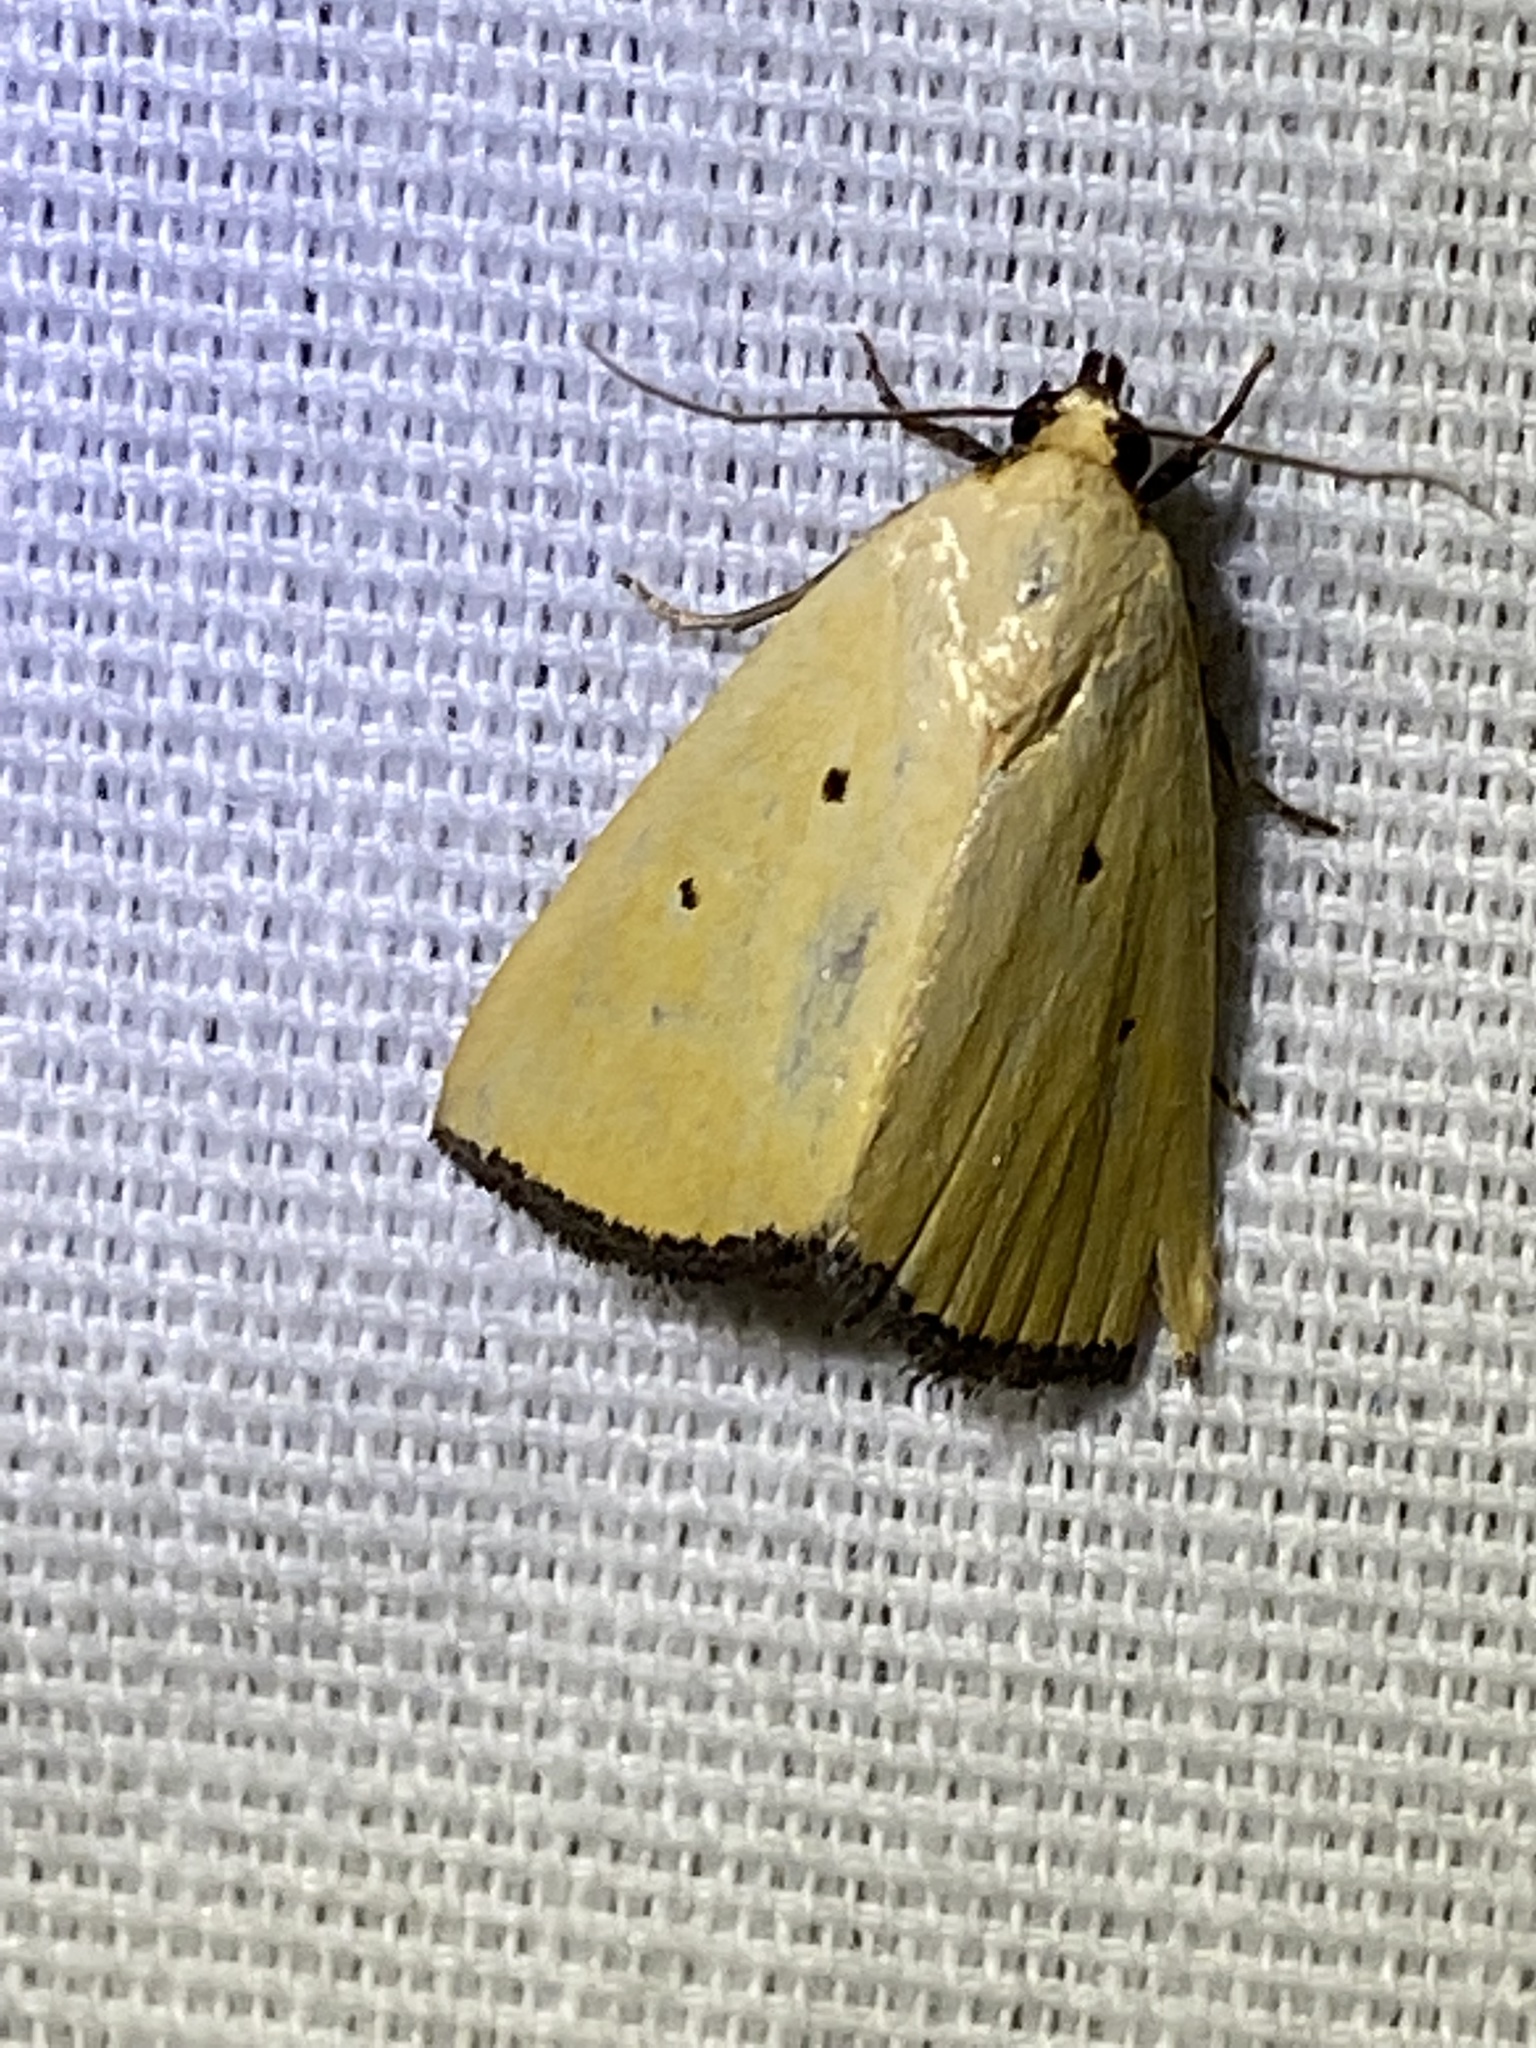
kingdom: Animalia
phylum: Arthropoda
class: Insecta
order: Lepidoptera
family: Noctuidae
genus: Marimatha
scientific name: Marimatha nigrofimbria
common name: Black-bordered lemon moth
